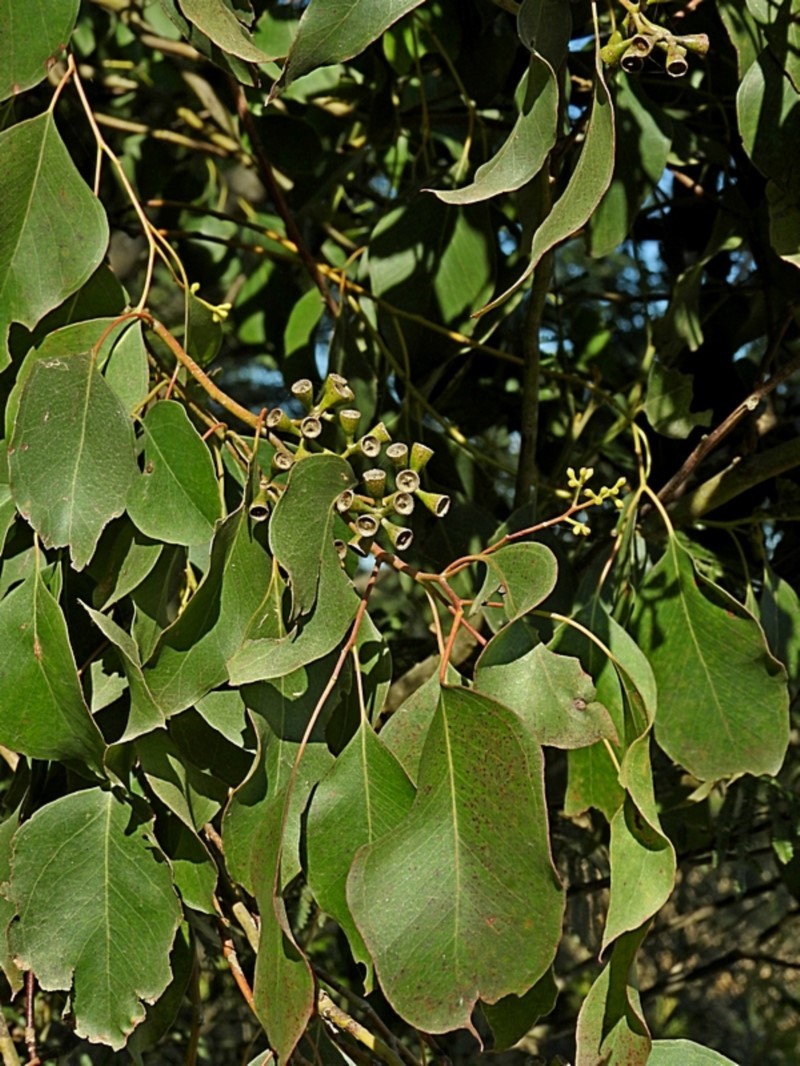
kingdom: Plantae
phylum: Tracheophyta
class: Magnoliopsida
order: Myrtales
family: Myrtaceae
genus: Eucalyptus
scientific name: Eucalyptus baueriana
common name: Round-leaf-box
